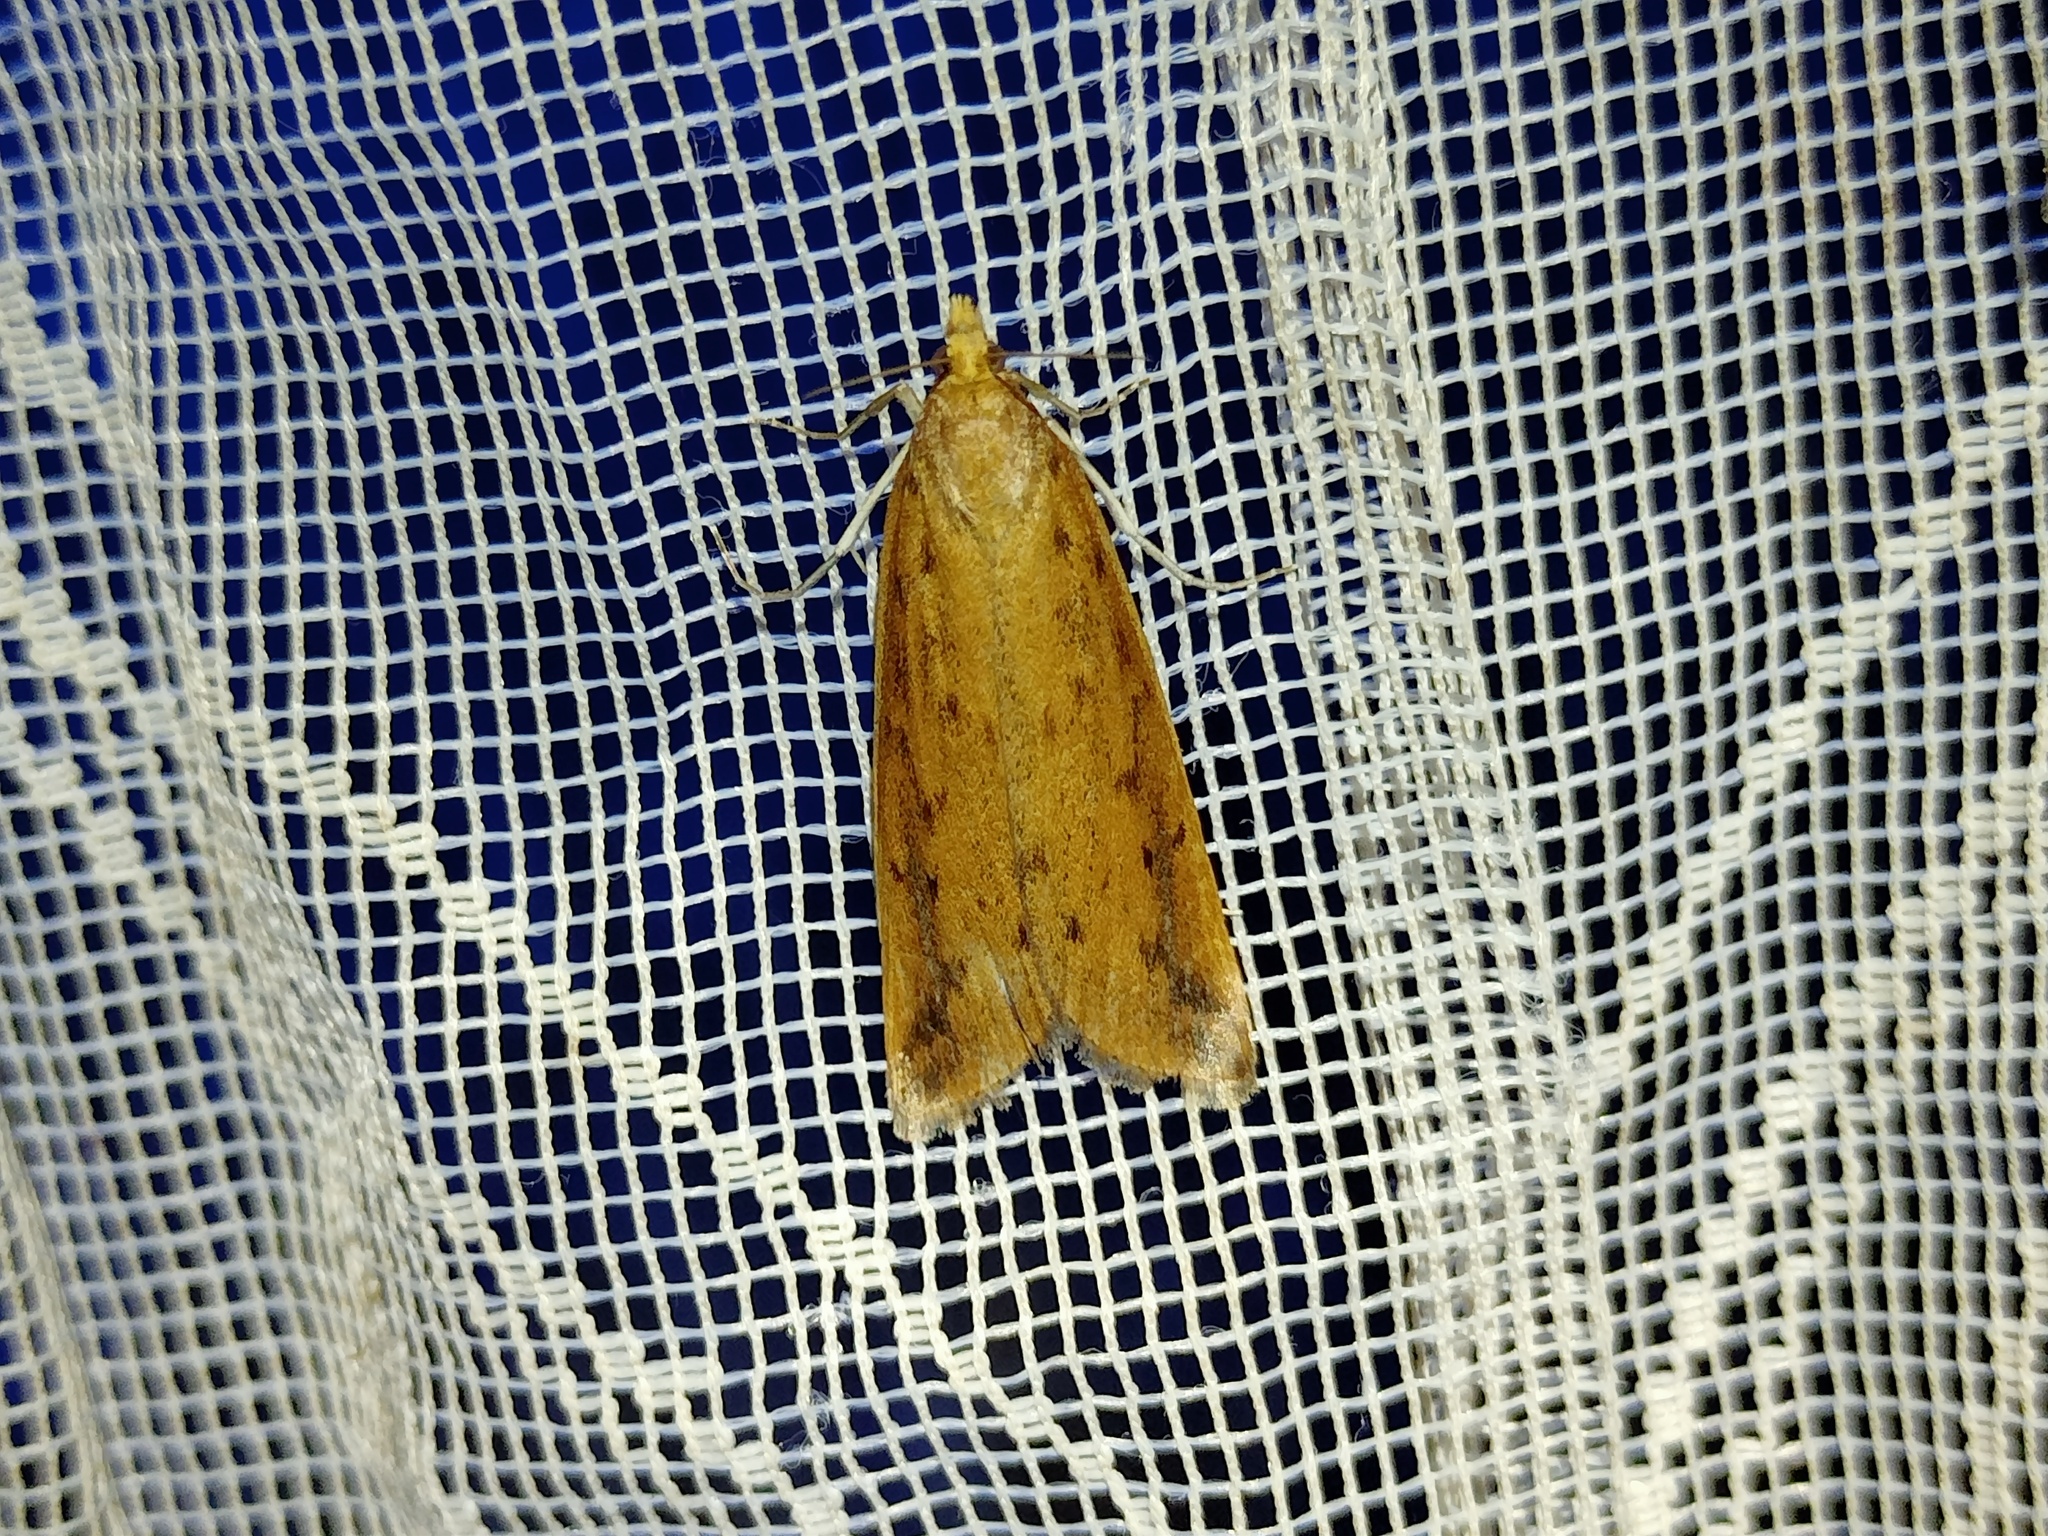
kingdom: Animalia
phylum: Arthropoda
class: Insecta
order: Lepidoptera
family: Crambidae
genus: Schoenobius
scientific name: Schoenobius gigantella
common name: Giant water-veneer
